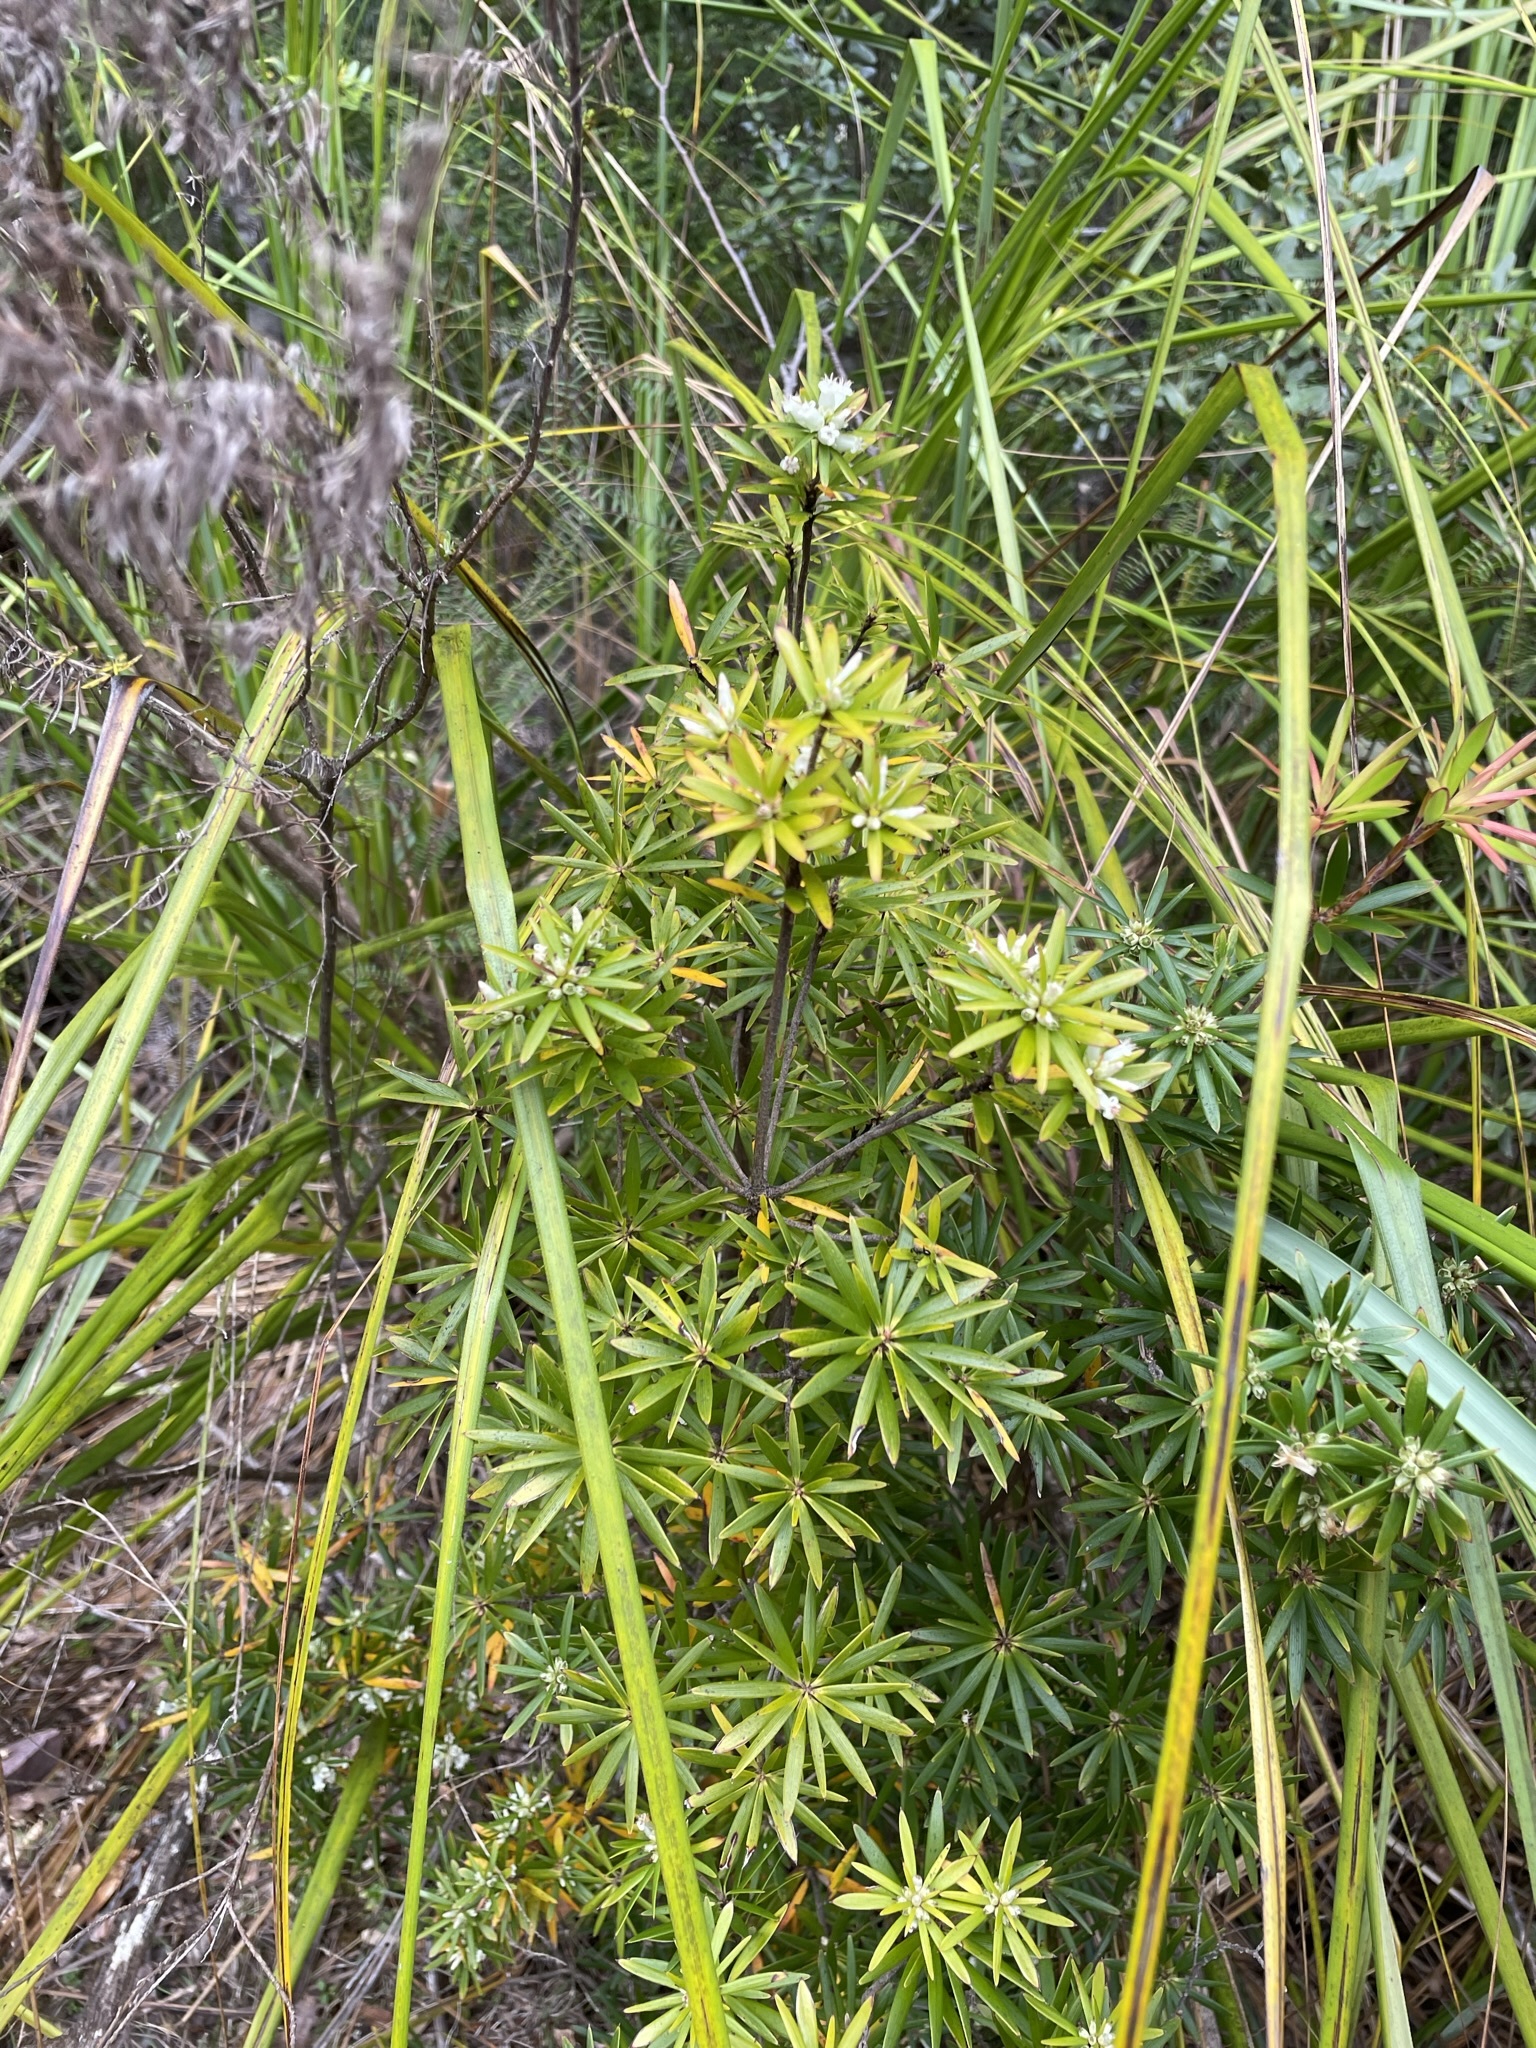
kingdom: Plantae
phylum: Tracheophyta
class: Magnoliopsida
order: Ericales
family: Ericaceae
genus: Cyathodes
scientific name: Cyathodes glauca
